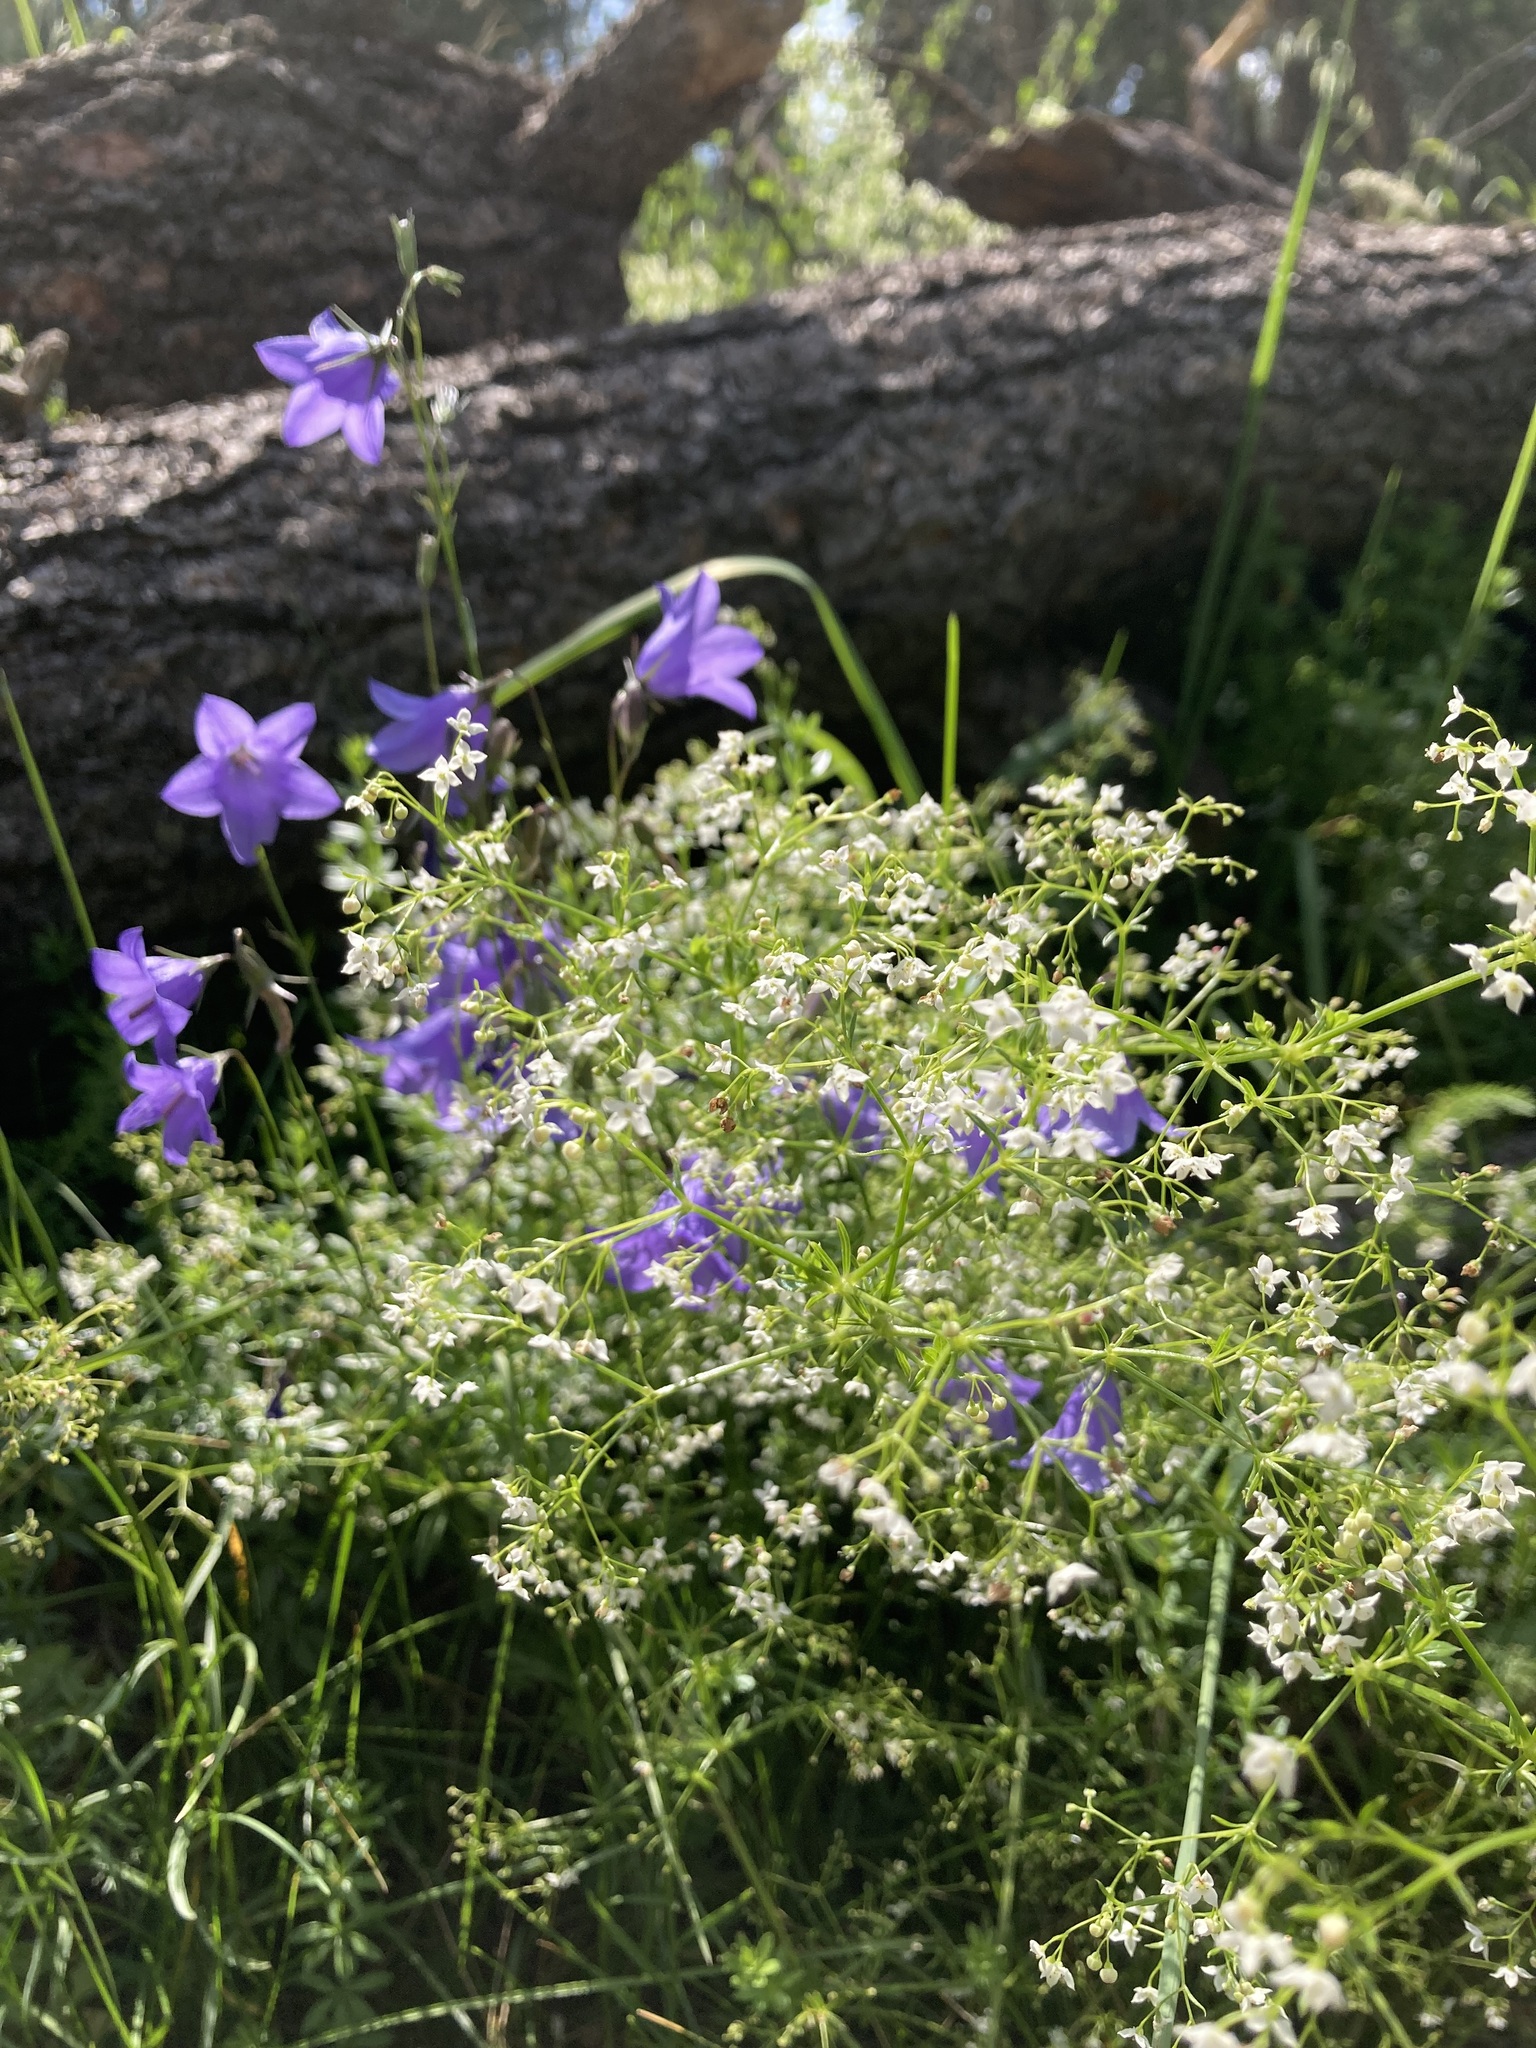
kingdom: Plantae
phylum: Tracheophyta
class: Magnoliopsida
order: Gentianales
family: Rubiaceae
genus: Galium
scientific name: Galium mexicanum
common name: Mexican bedstraw
